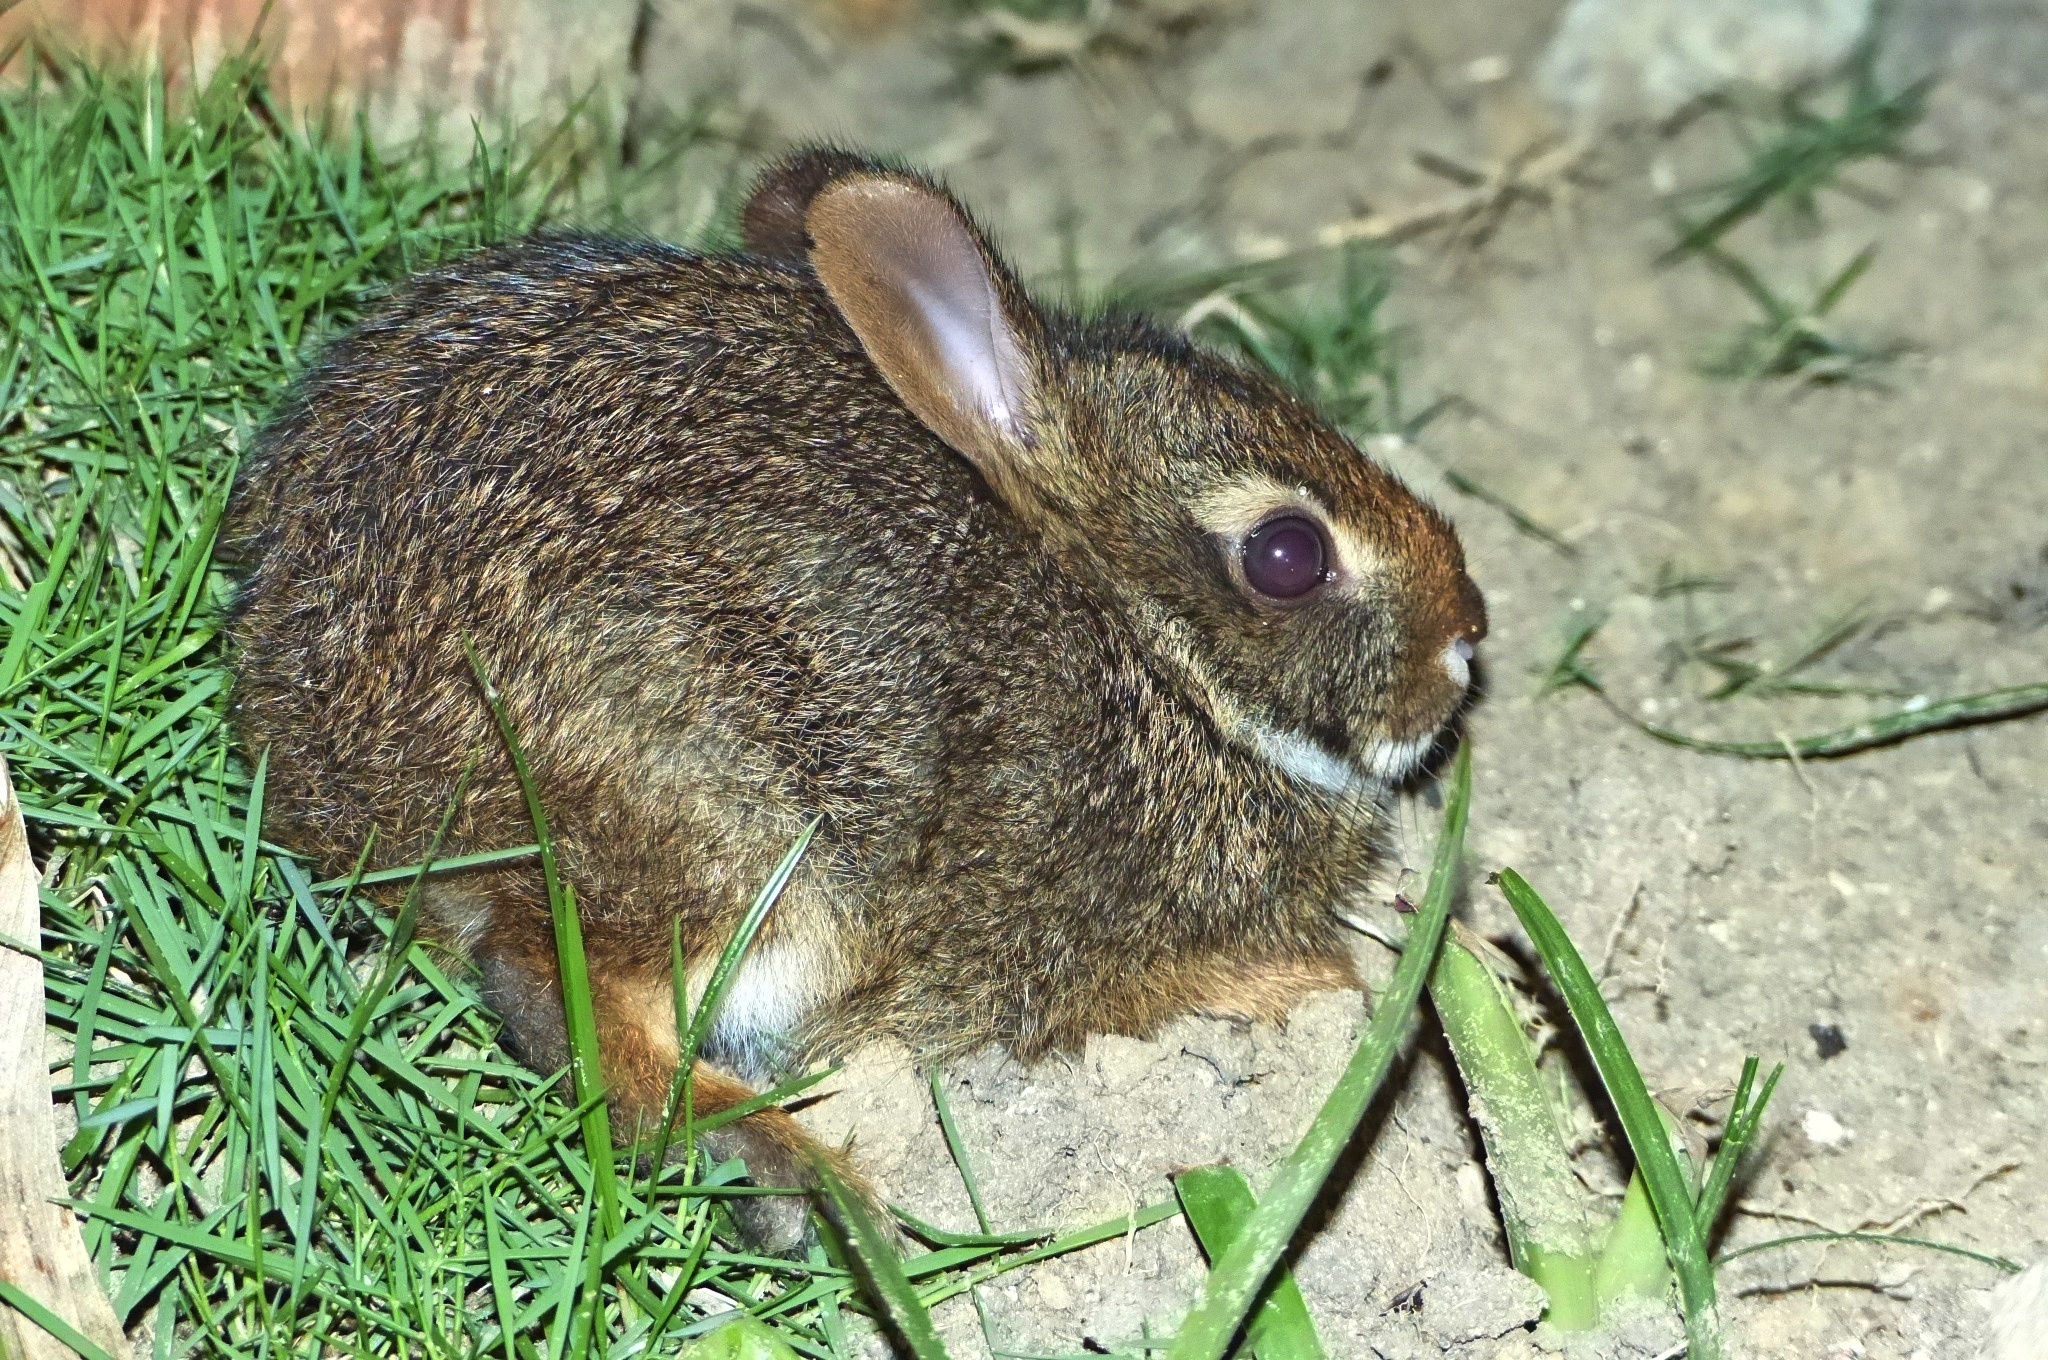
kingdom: Animalia
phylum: Chordata
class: Mammalia
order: Lagomorpha
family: Leporidae
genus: Sylvilagus
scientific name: Sylvilagus brasiliensis
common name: Tapeti
